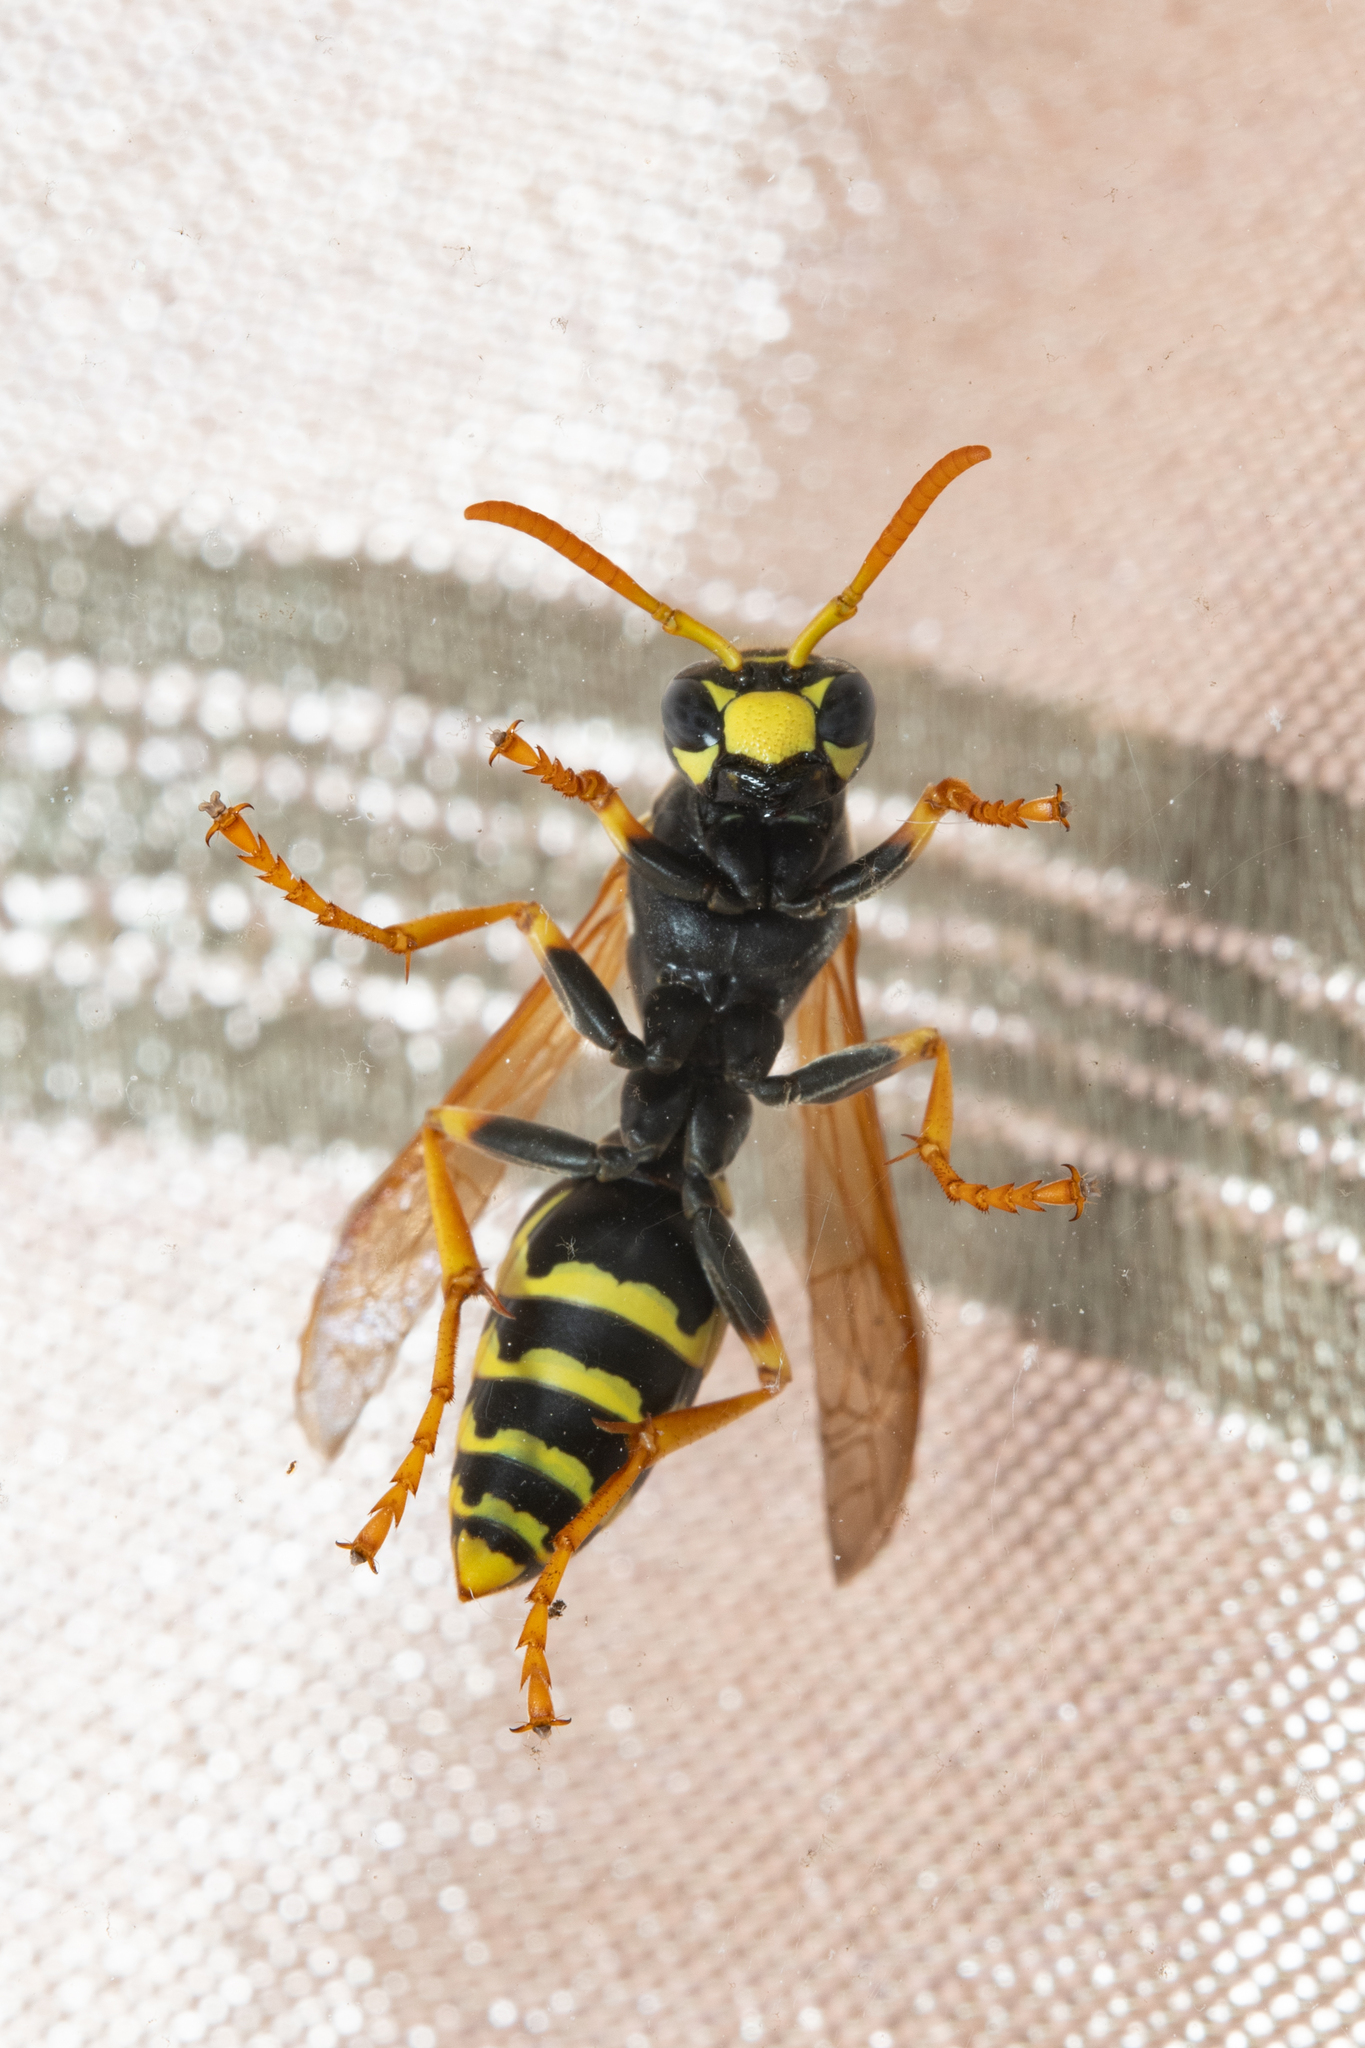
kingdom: Animalia
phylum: Arthropoda
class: Insecta
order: Hymenoptera
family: Eumenidae
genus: Polistes
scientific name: Polistes dominula
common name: Paper wasp
